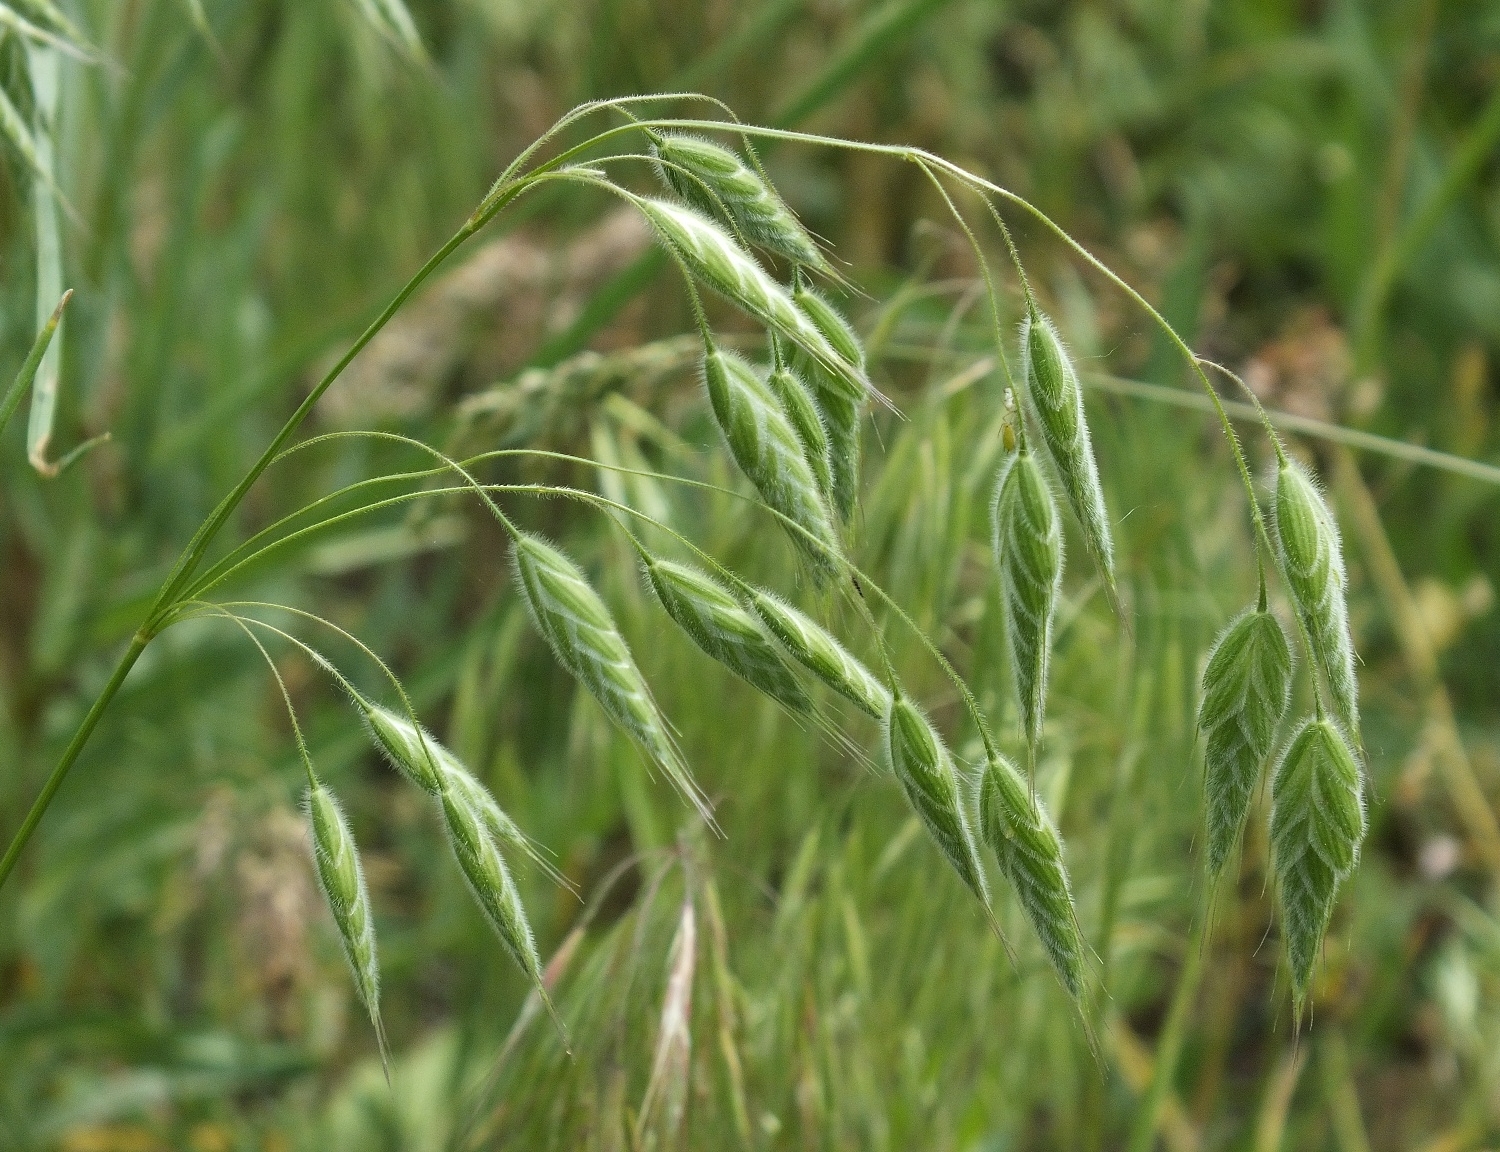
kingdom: Plantae
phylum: Tracheophyta
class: Liliopsida
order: Poales
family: Poaceae
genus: Bromus
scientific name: Bromus squarrosus
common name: Corn brome
